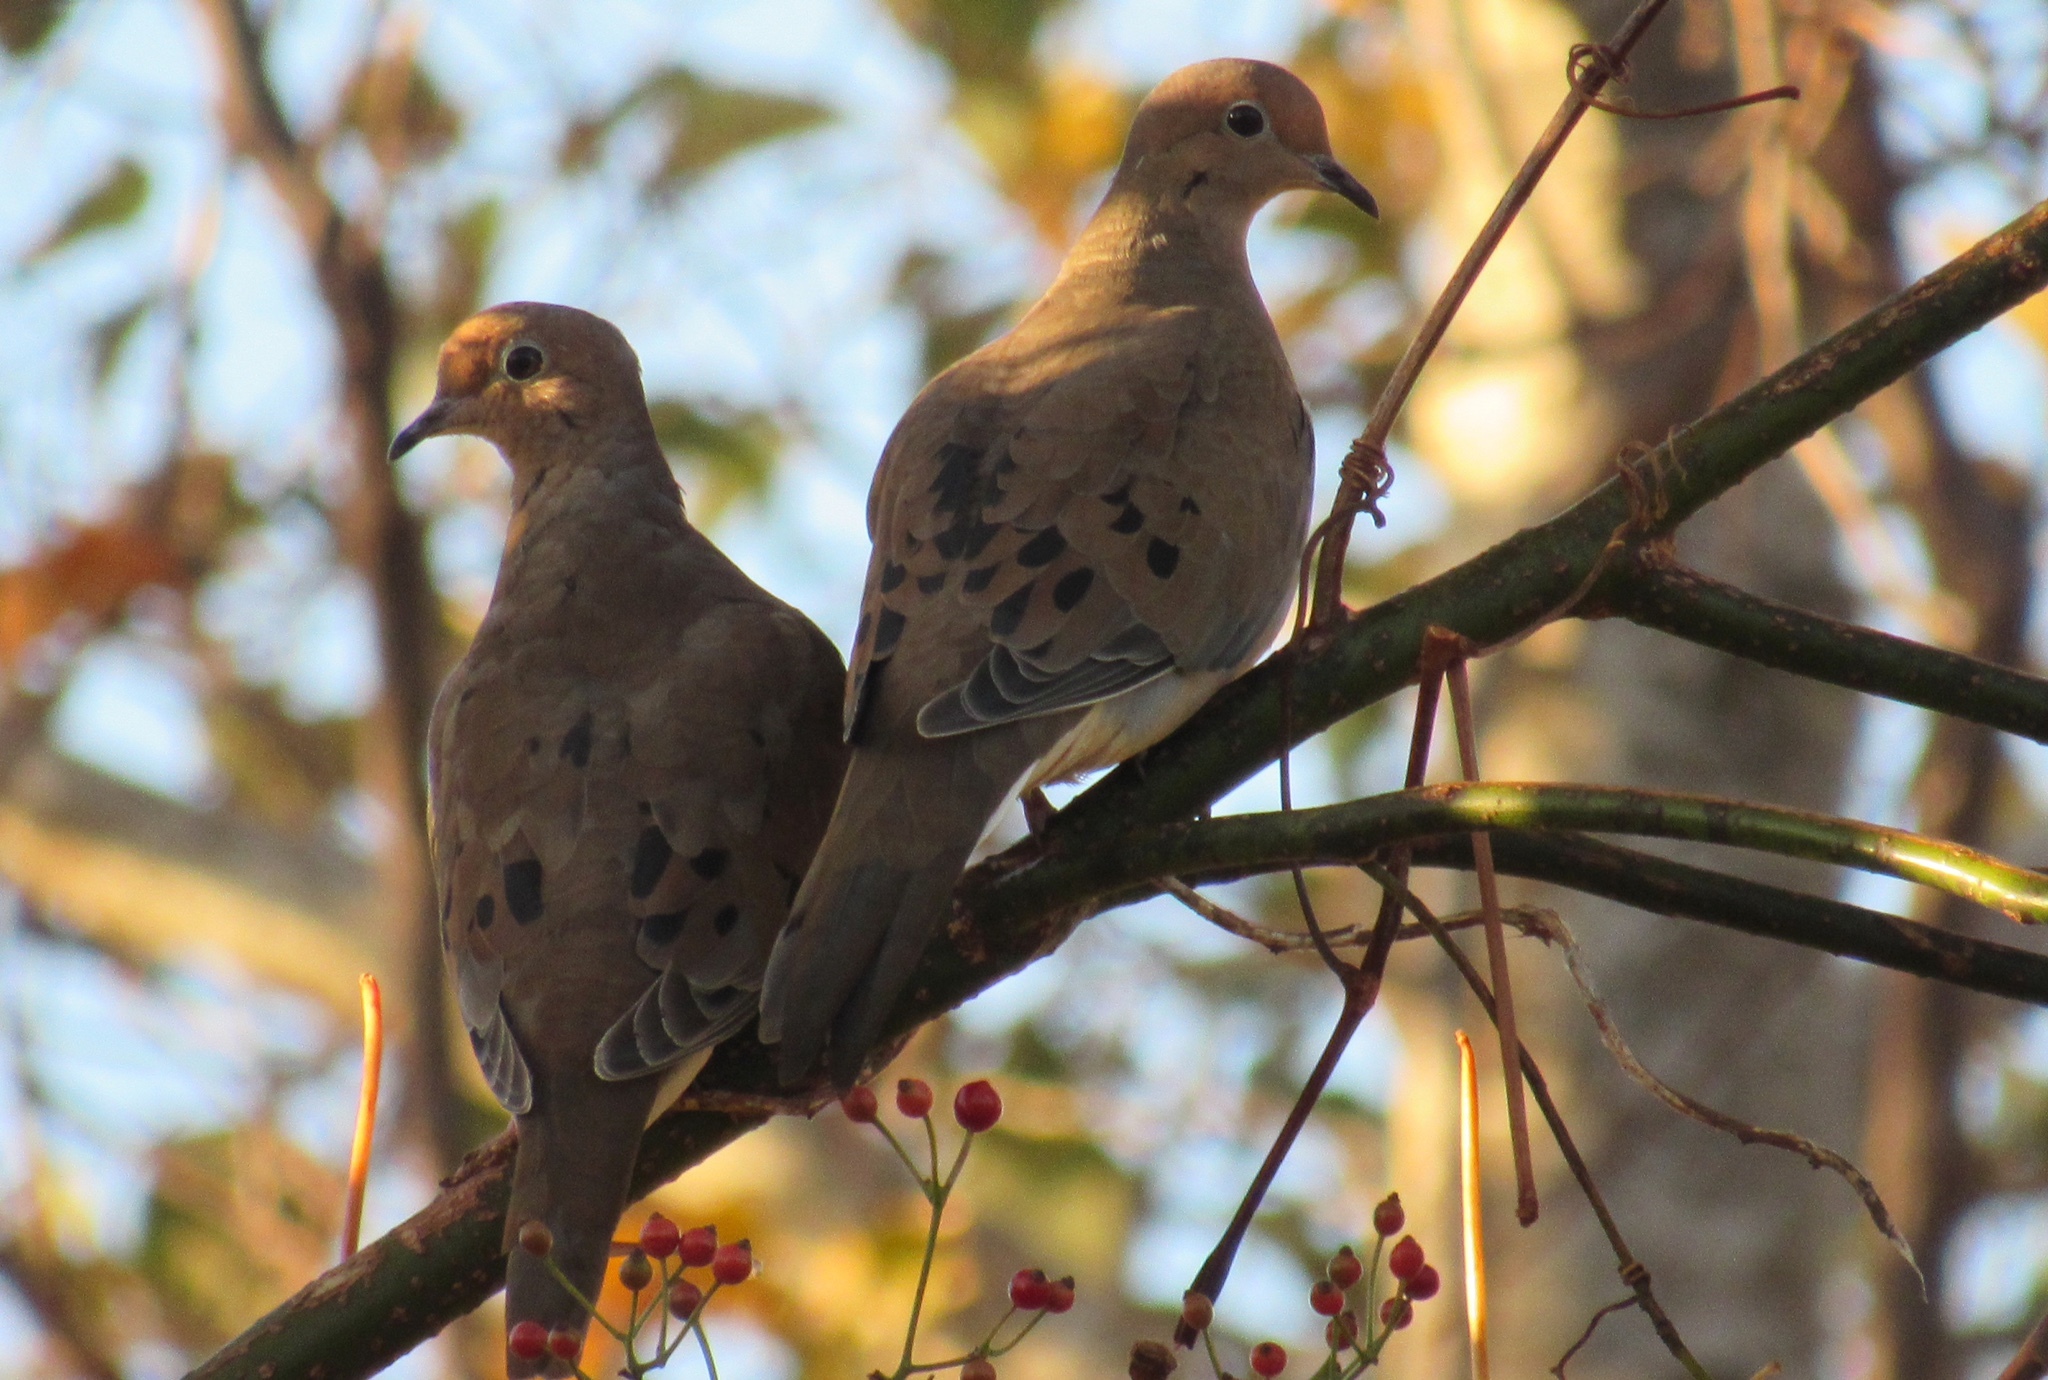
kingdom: Animalia
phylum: Chordata
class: Aves
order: Columbiformes
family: Columbidae
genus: Zenaida
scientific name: Zenaida macroura
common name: Mourning dove
